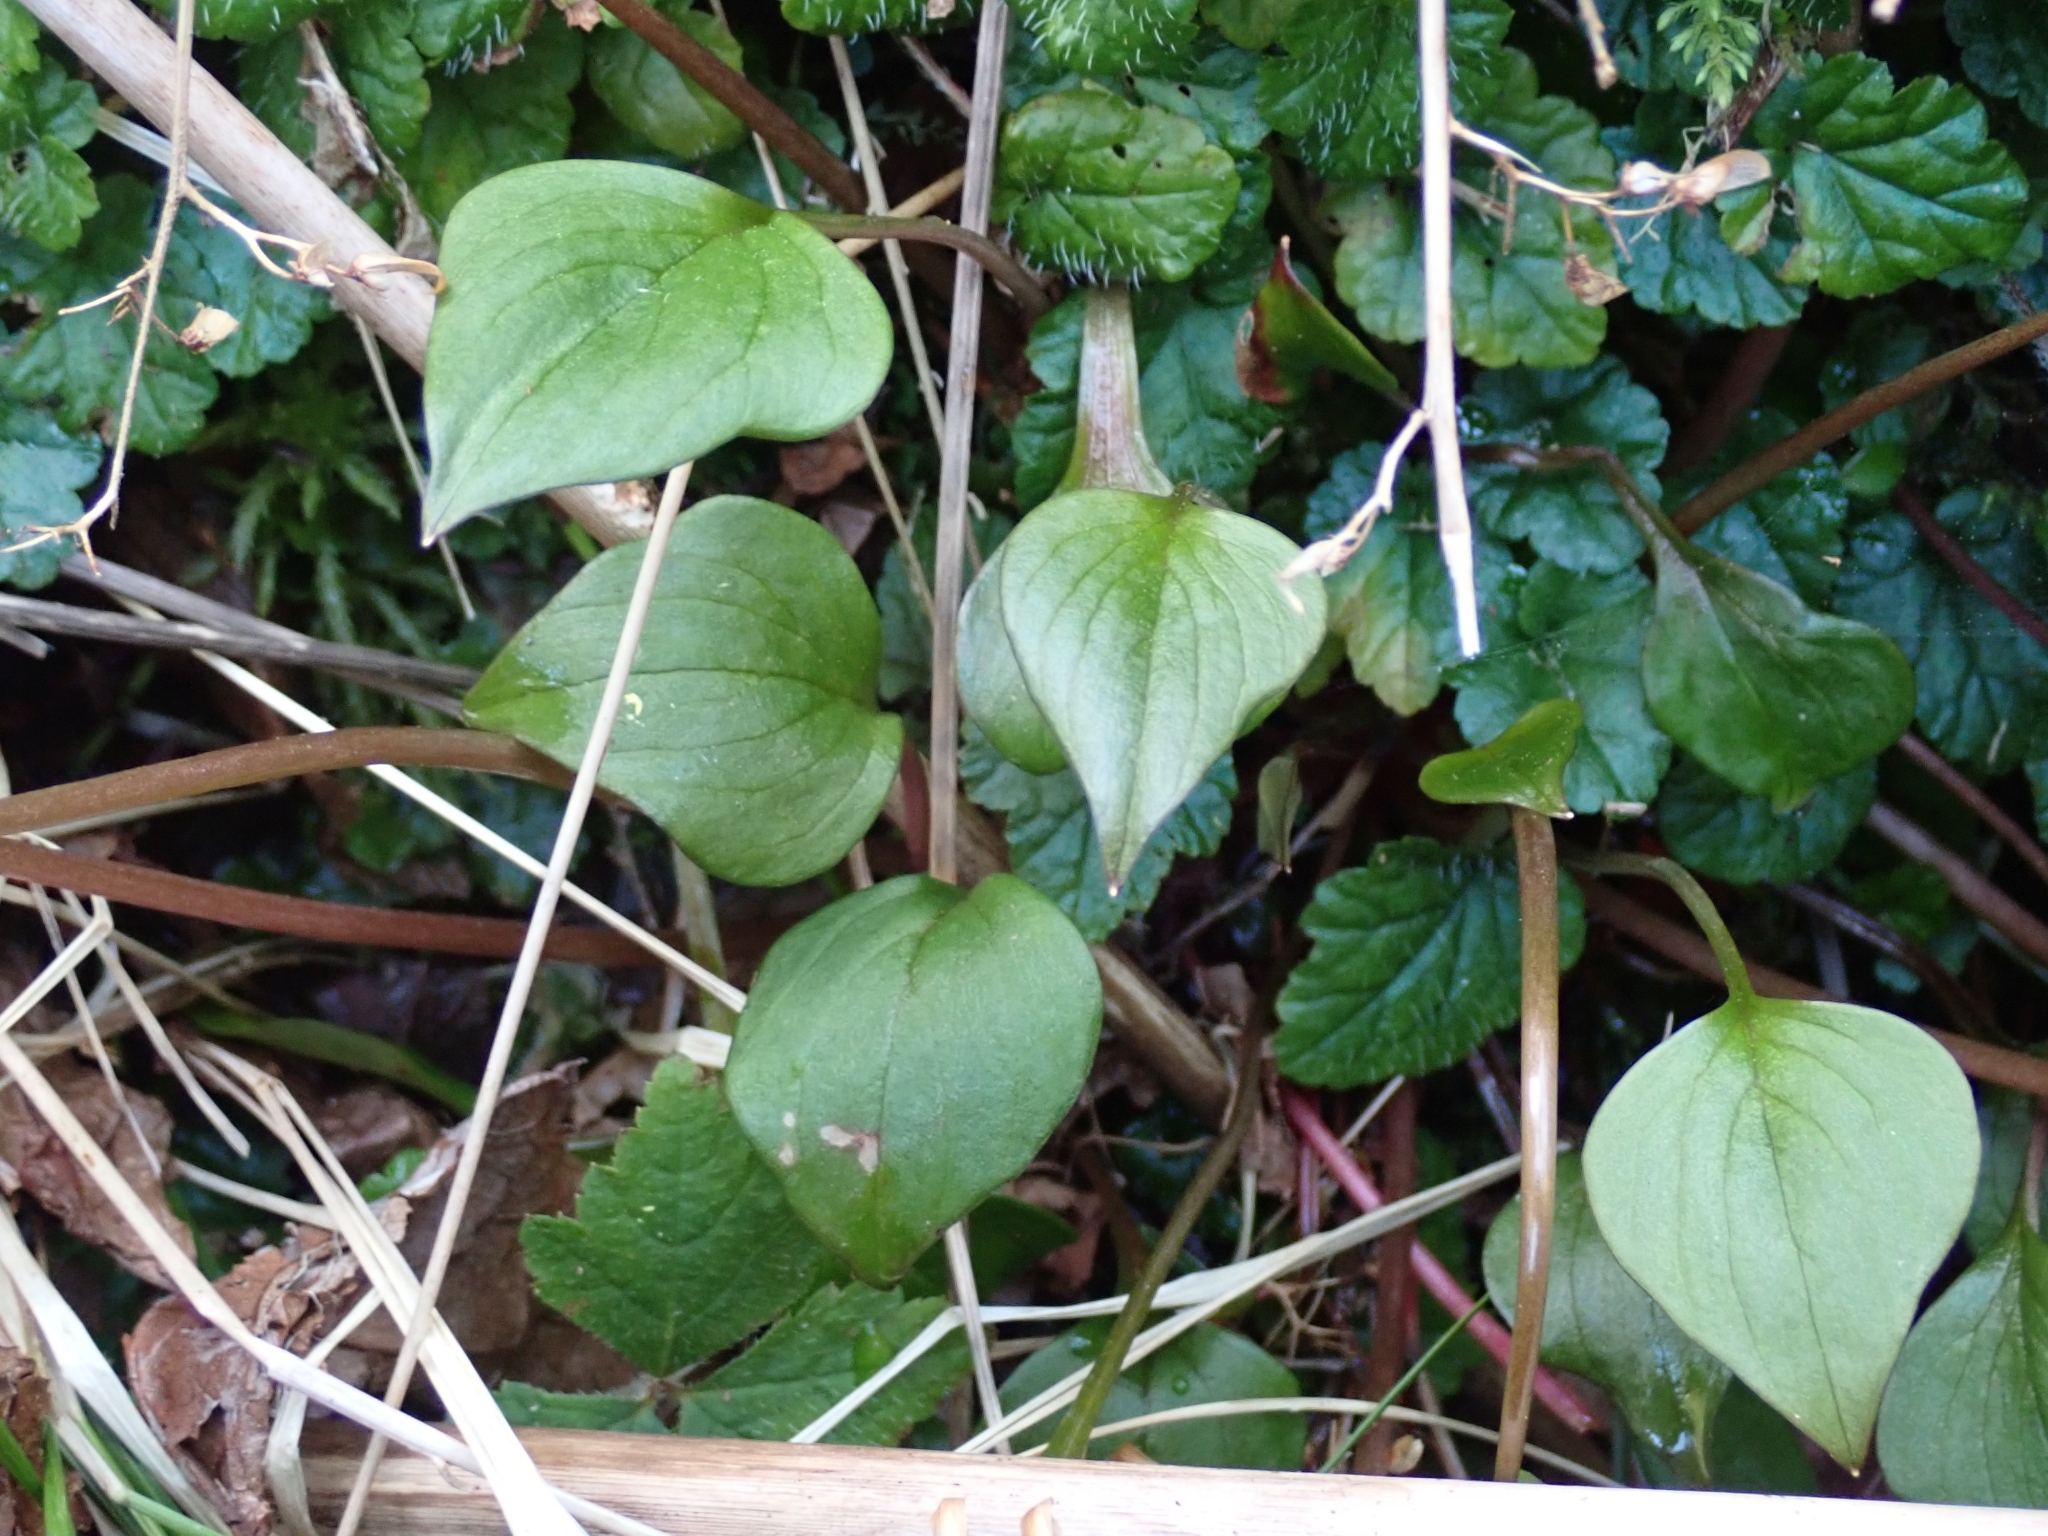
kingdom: Plantae
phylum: Tracheophyta
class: Magnoliopsida
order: Caryophyllales
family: Montiaceae
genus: Claytonia
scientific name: Claytonia sibirica
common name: Pink purslane
